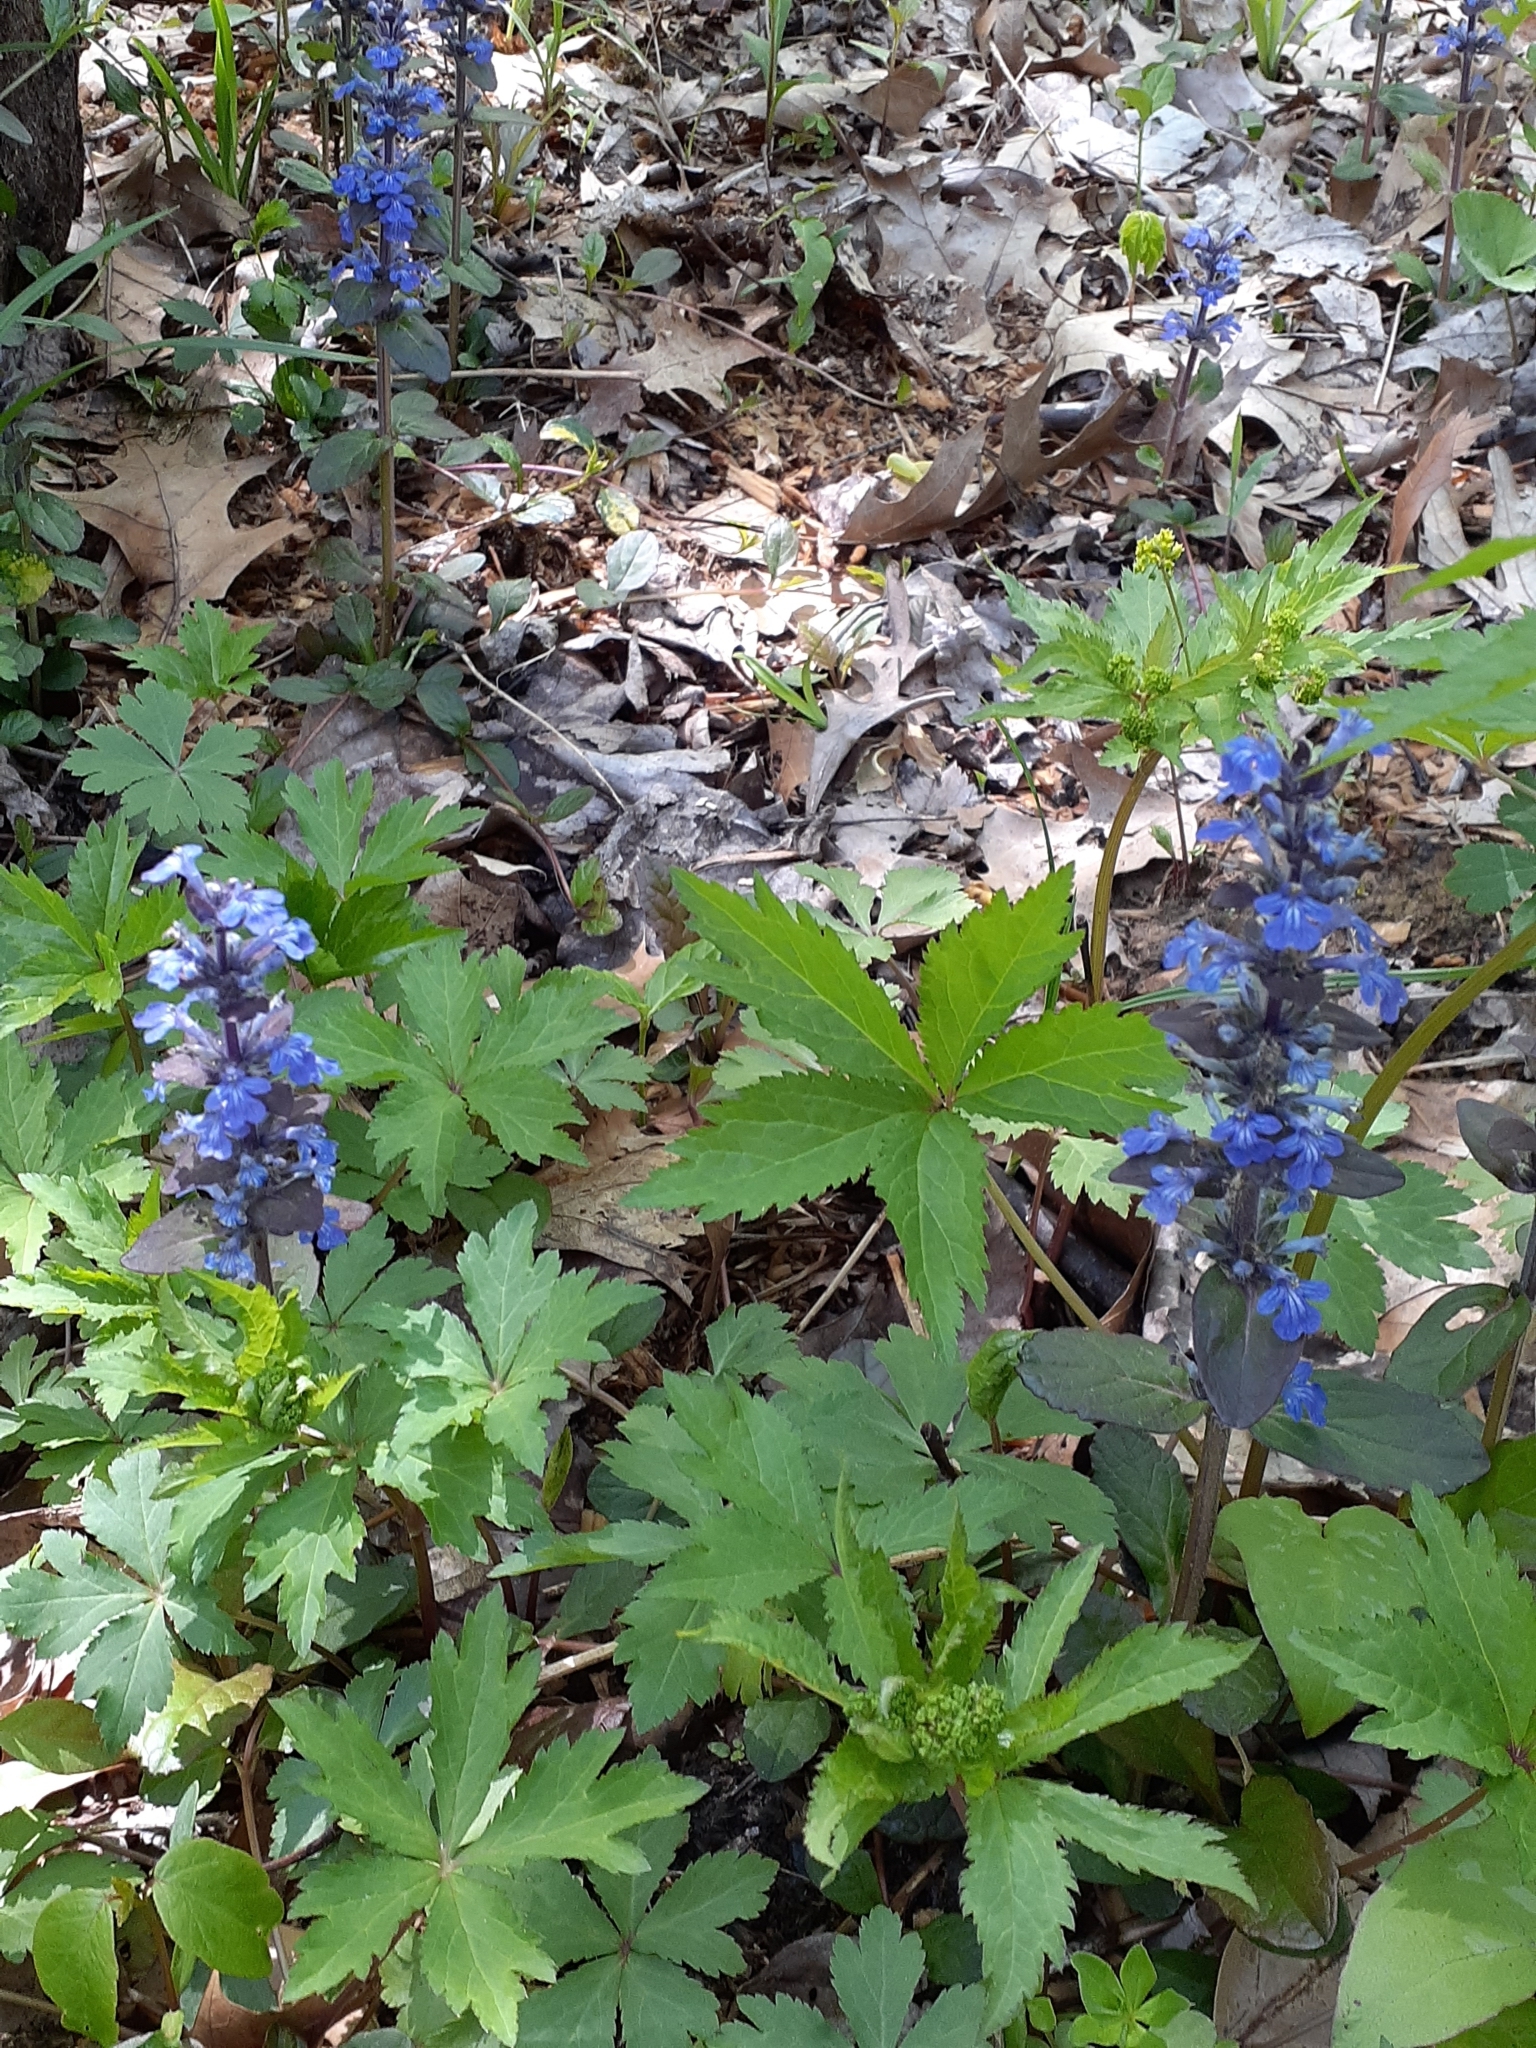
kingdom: Plantae
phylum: Tracheophyta
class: Magnoliopsida
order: Lamiales
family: Lamiaceae
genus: Ajuga
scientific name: Ajuga reptans
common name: Bugle
